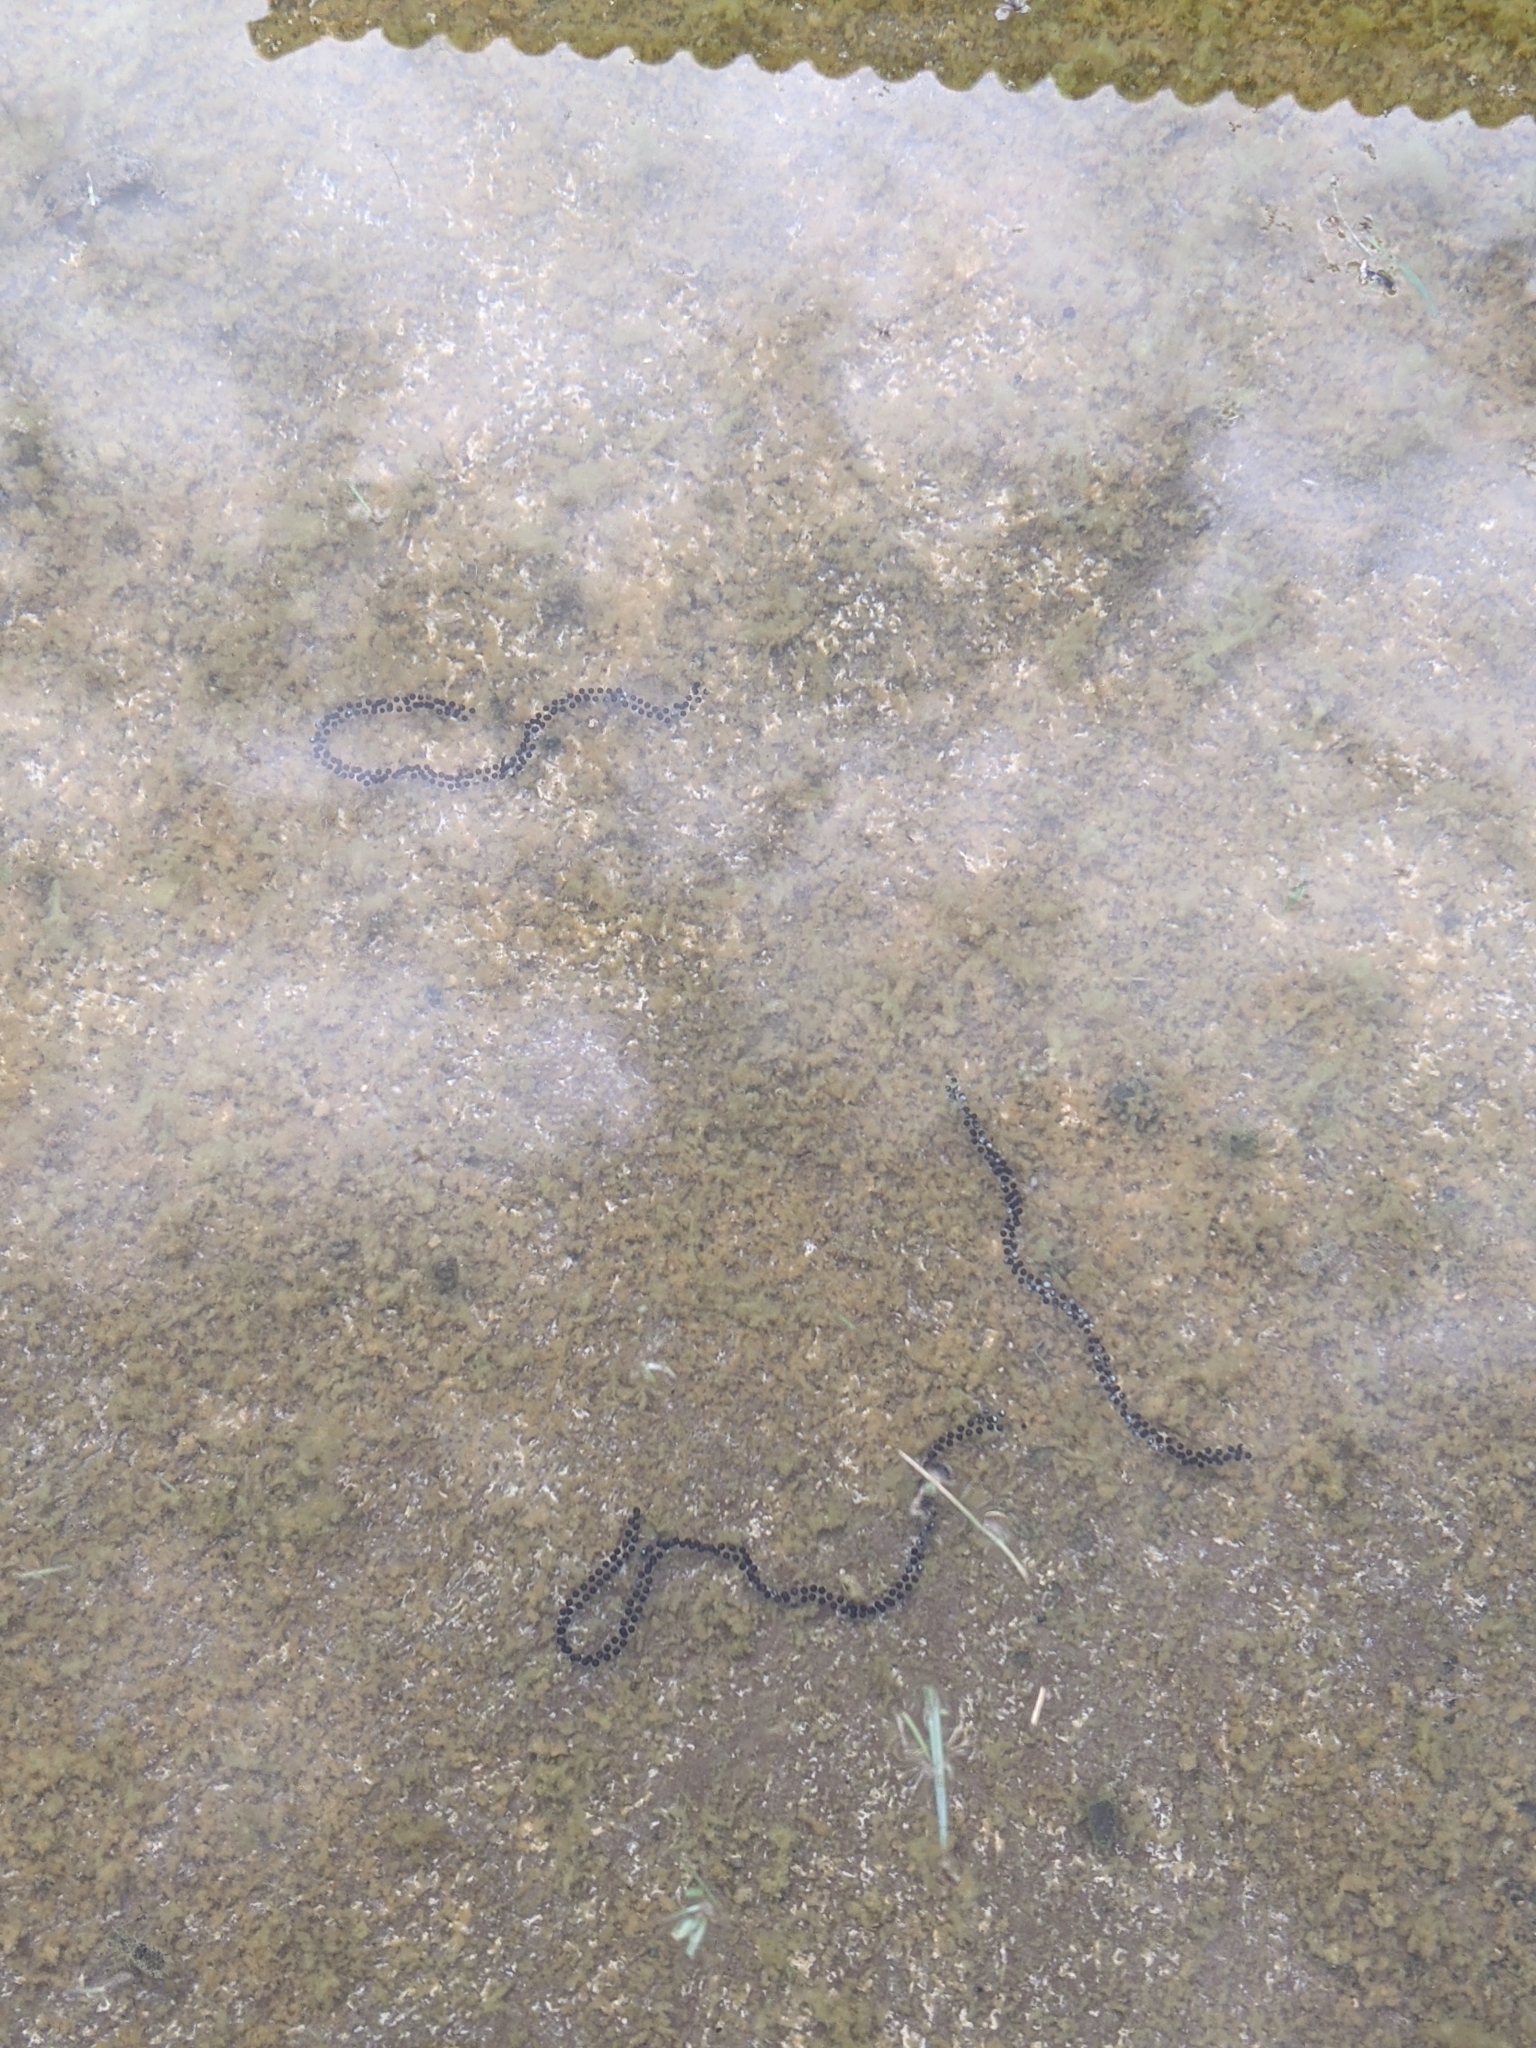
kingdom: Animalia
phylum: Chordata
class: Amphibia
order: Anura
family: Bufonidae
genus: Rhinella
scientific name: Rhinella marina
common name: Cane toad
